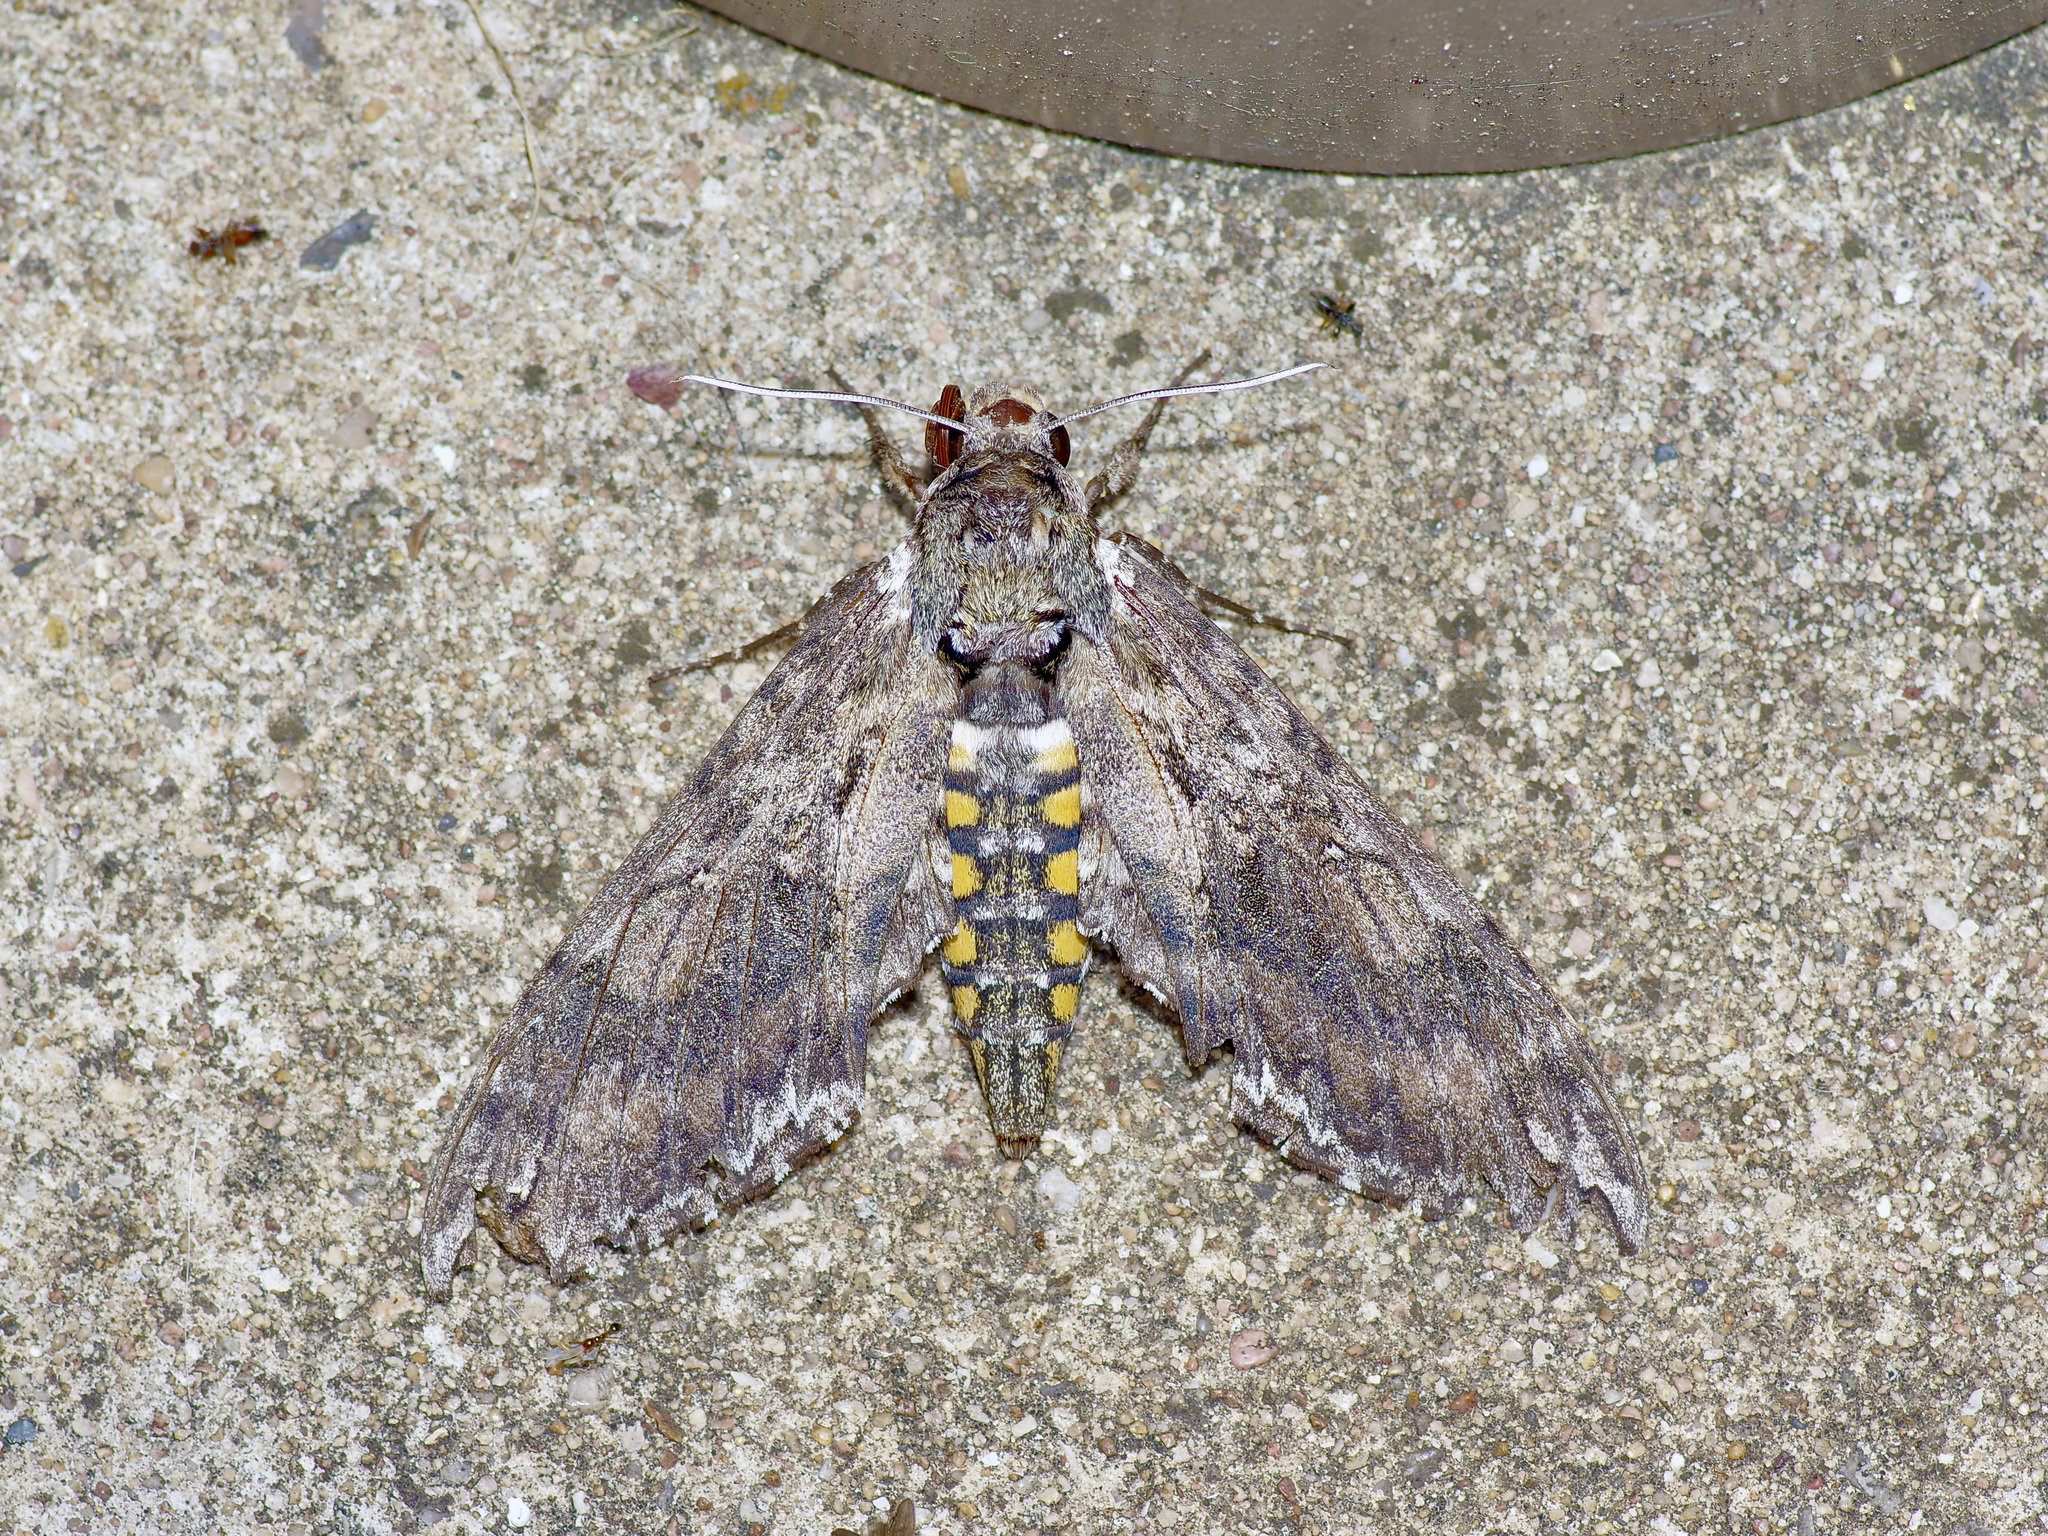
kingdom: Animalia
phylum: Arthropoda
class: Insecta
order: Lepidoptera
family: Sphingidae
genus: Manduca
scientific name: Manduca sexta
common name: Carolina sphinx
